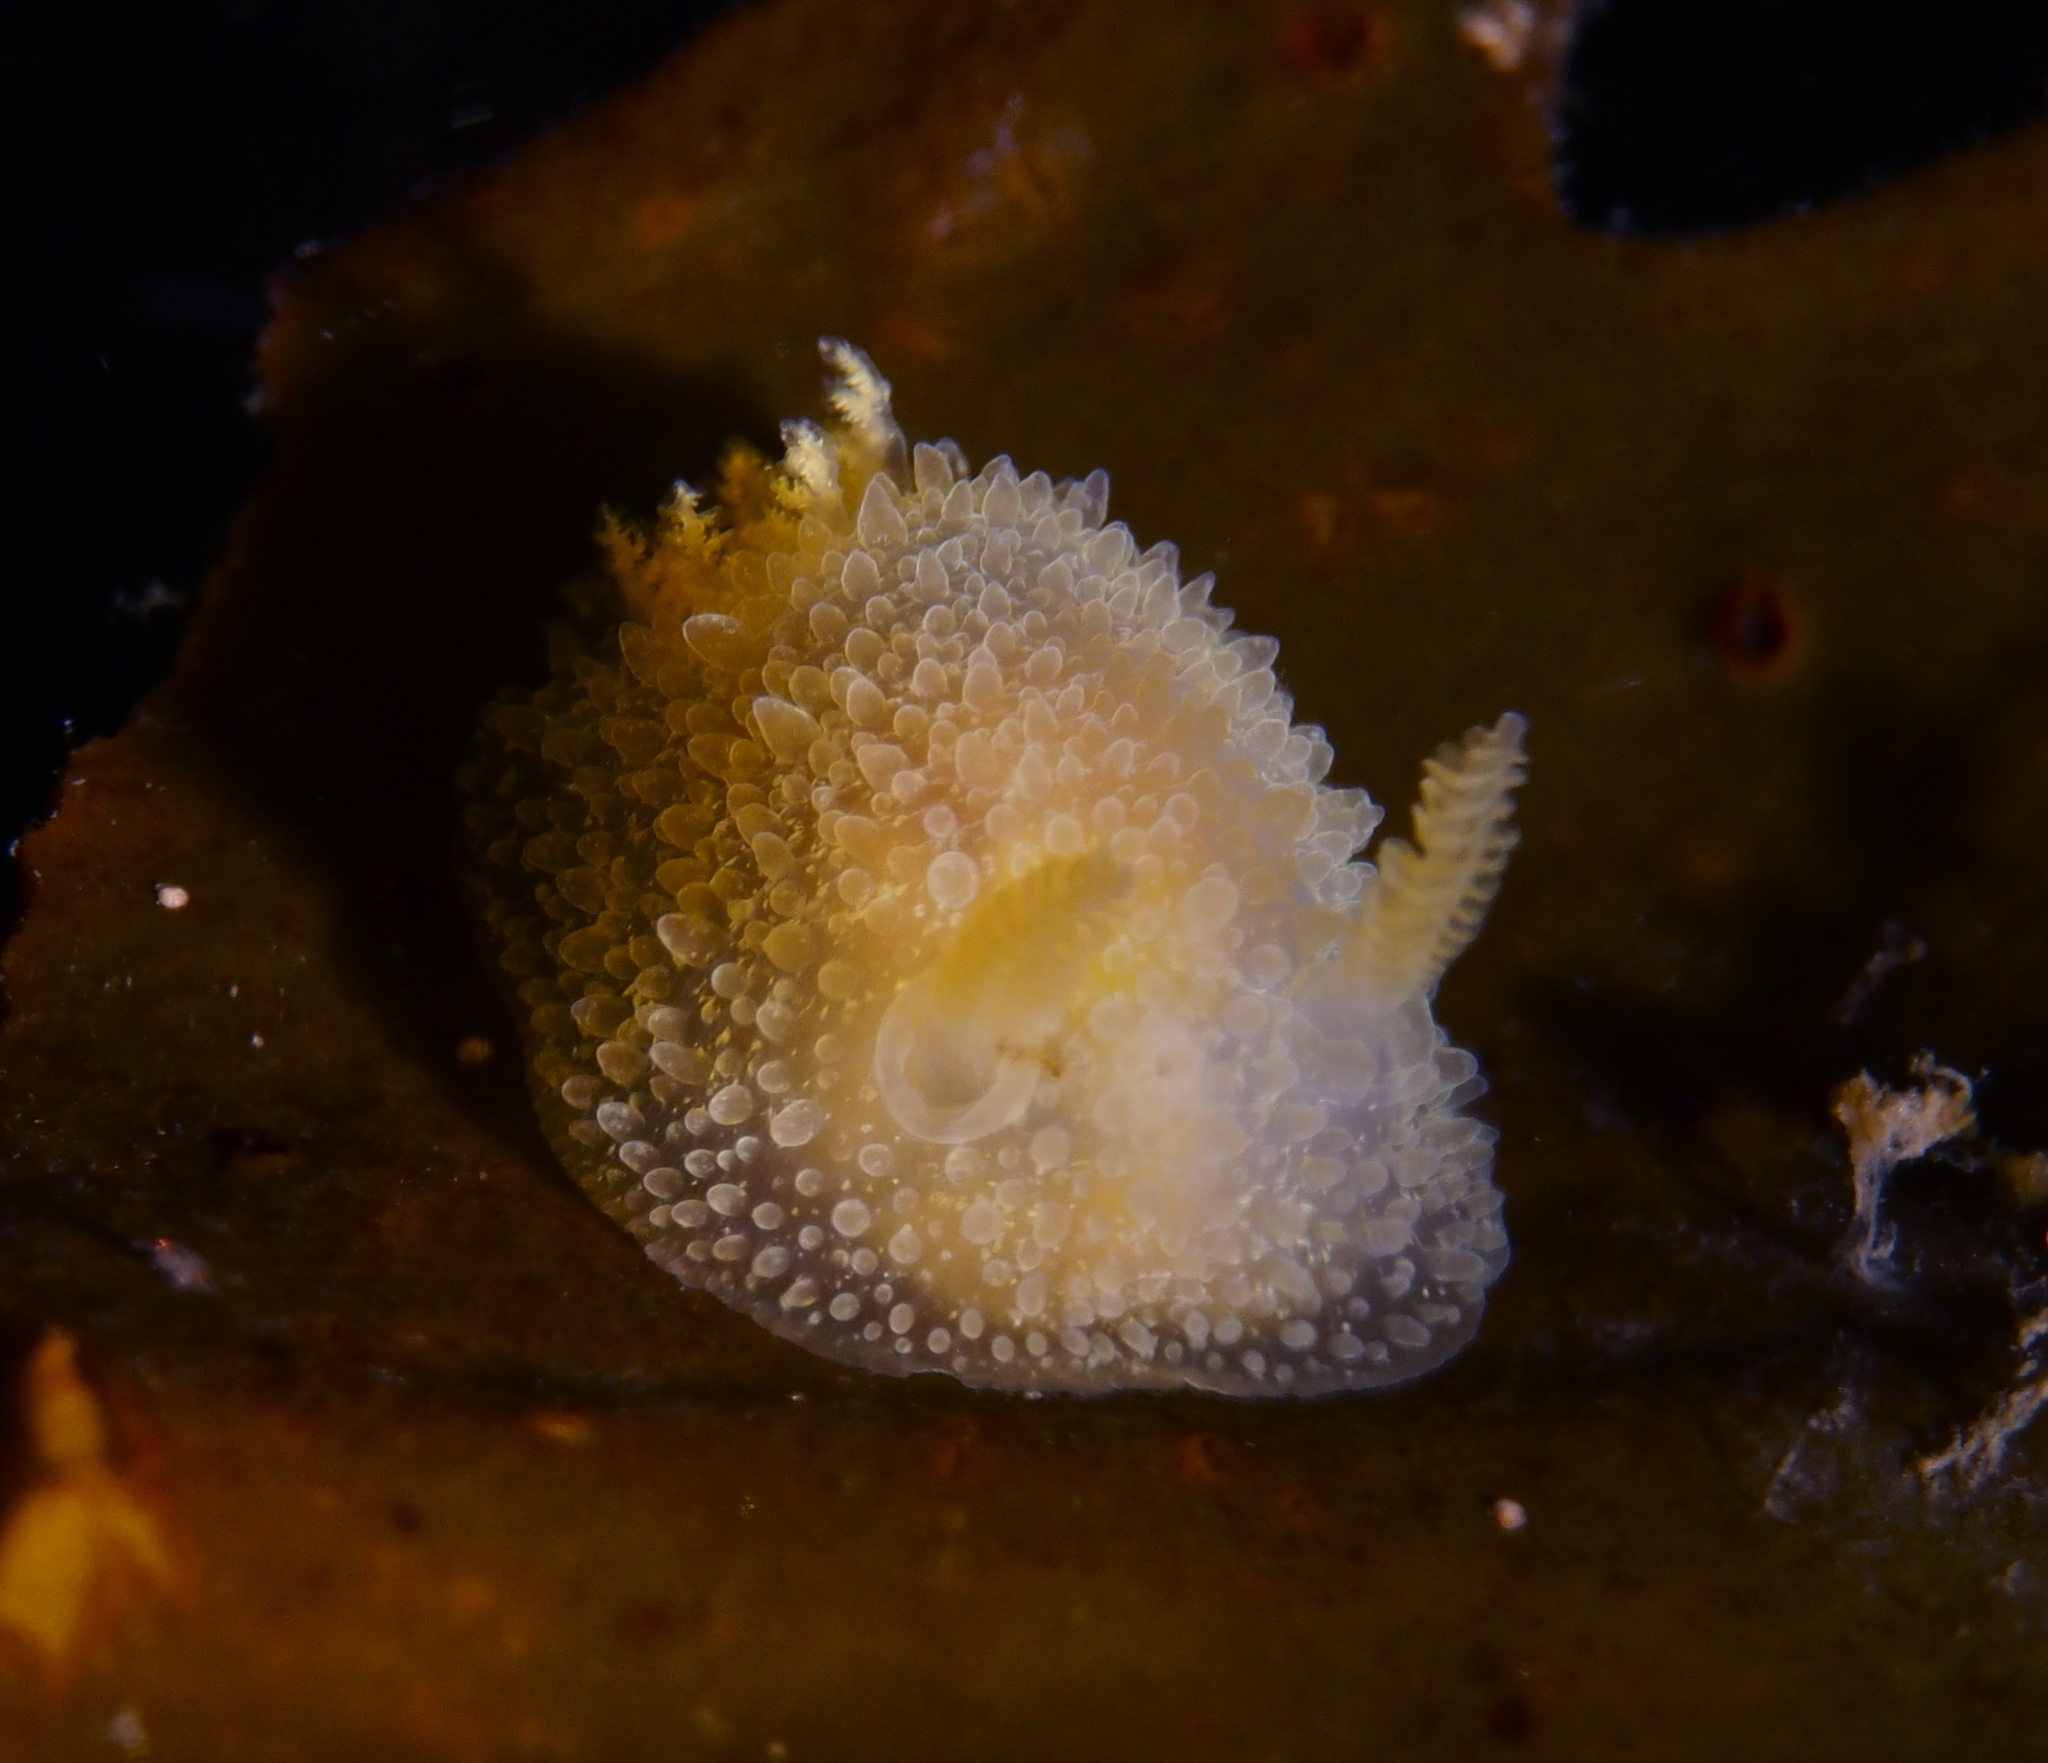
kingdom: Animalia
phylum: Mollusca
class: Gastropoda
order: Nudibranchia
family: Onchidorididae
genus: Acanthodoris
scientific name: Acanthodoris pilosa
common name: Hairy spiny doris
